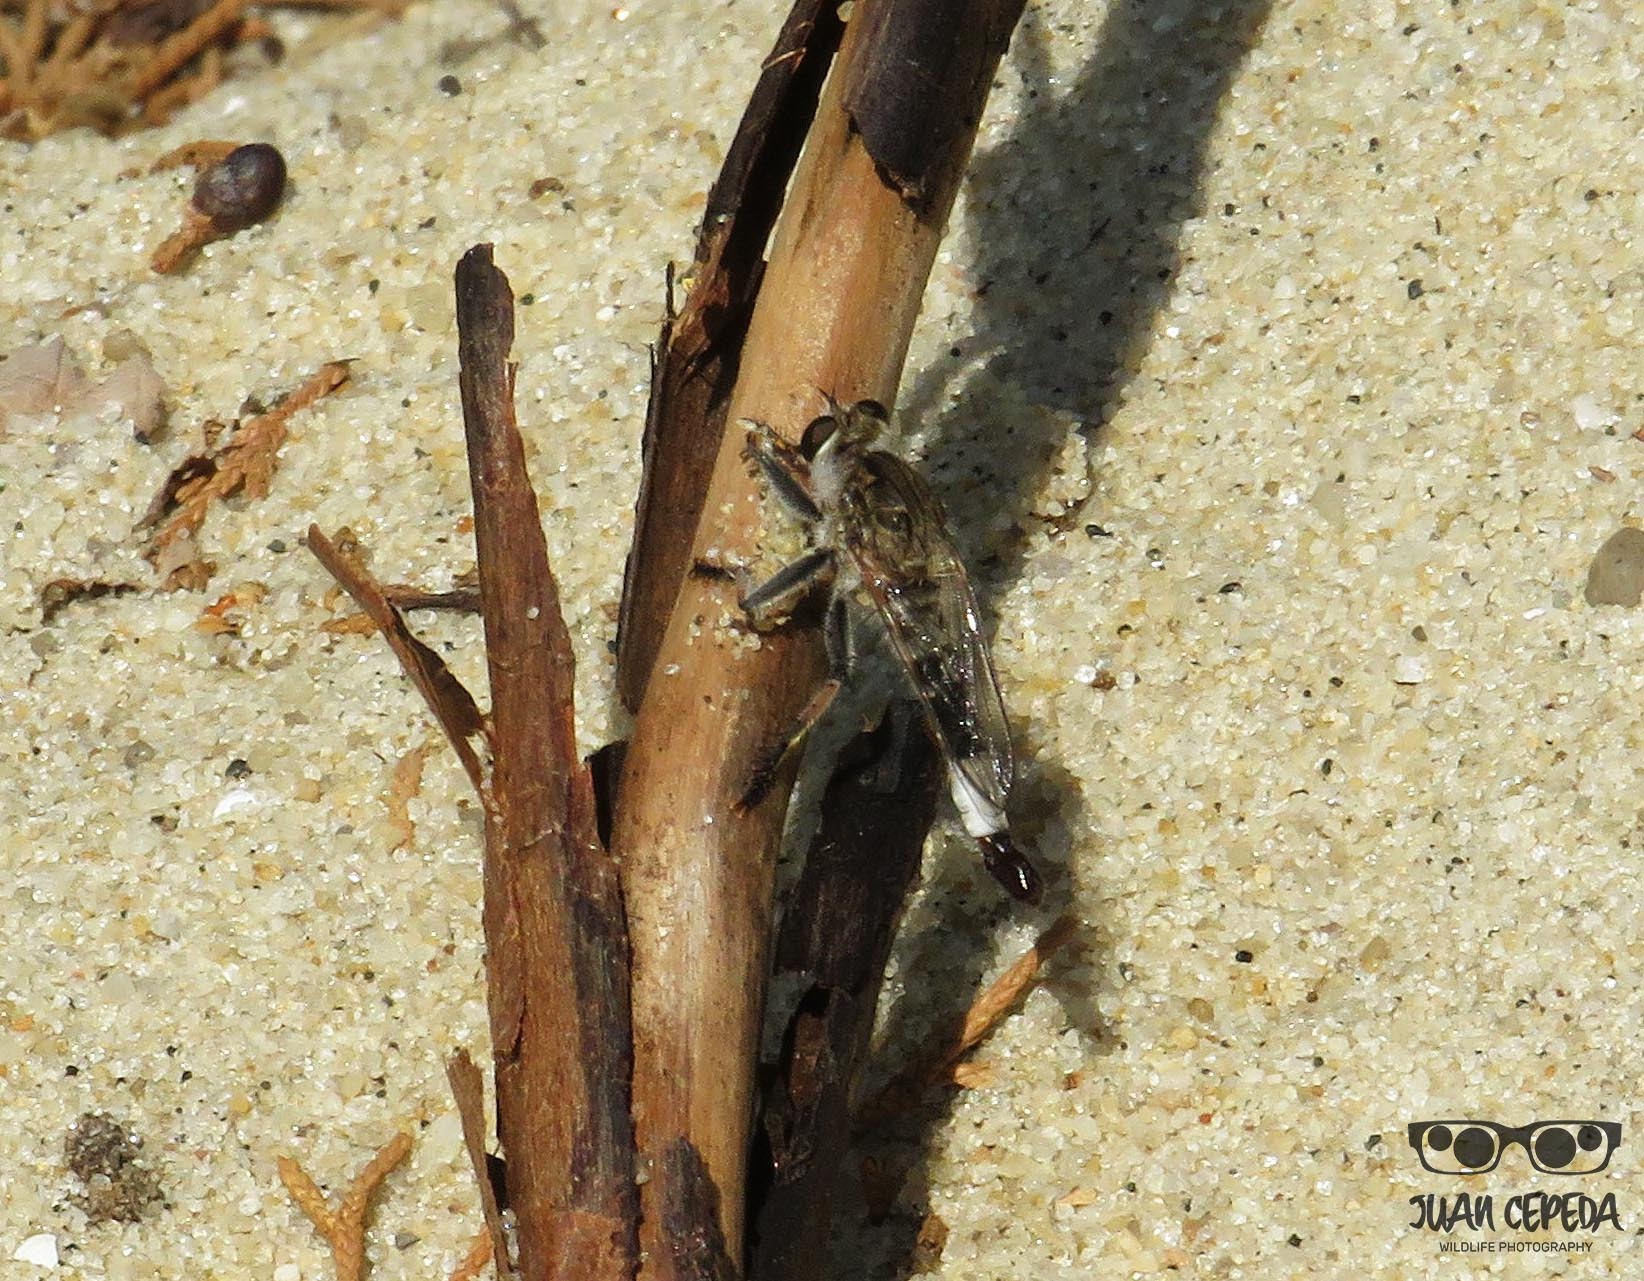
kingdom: Animalia
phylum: Arthropoda
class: Insecta
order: Diptera
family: Asilidae
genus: Efferia
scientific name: Efferia albibarbis
